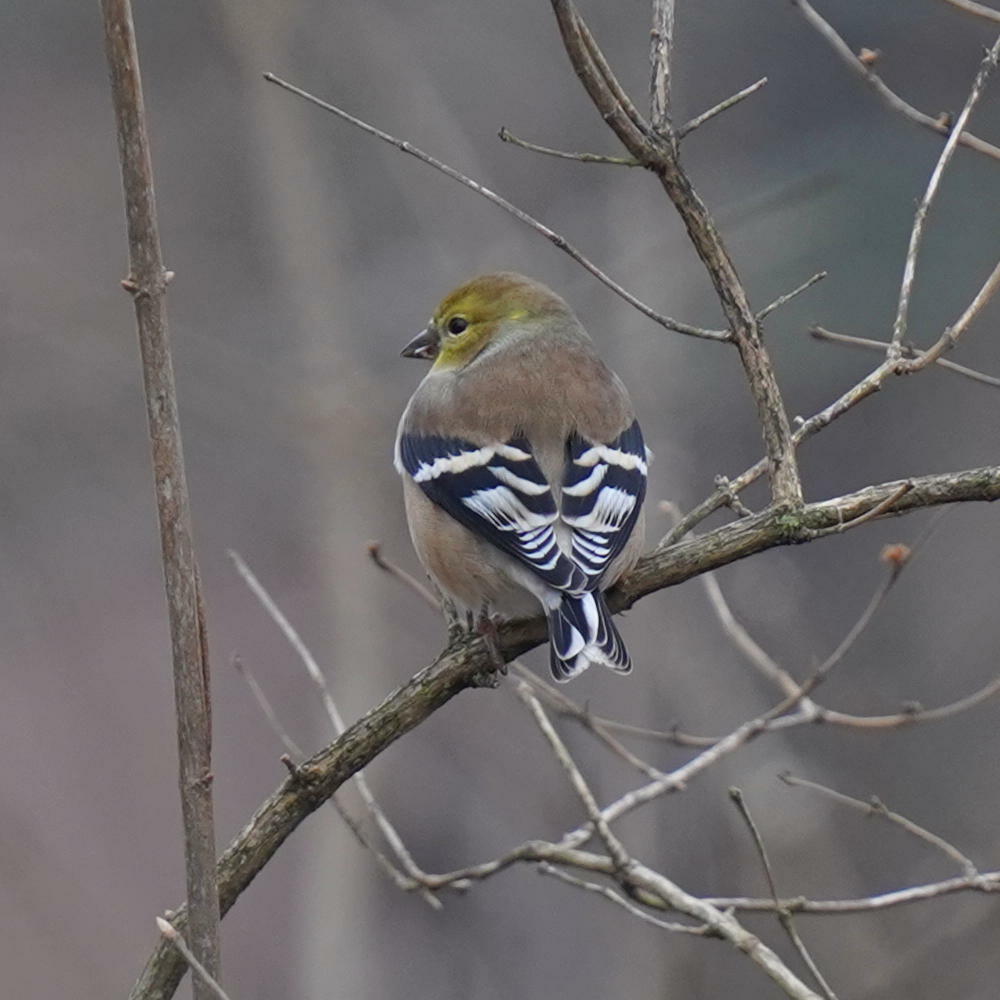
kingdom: Animalia
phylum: Chordata
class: Aves
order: Passeriformes
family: Fringillidae
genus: Spinus
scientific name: Spinus tristis
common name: American goldfinch
